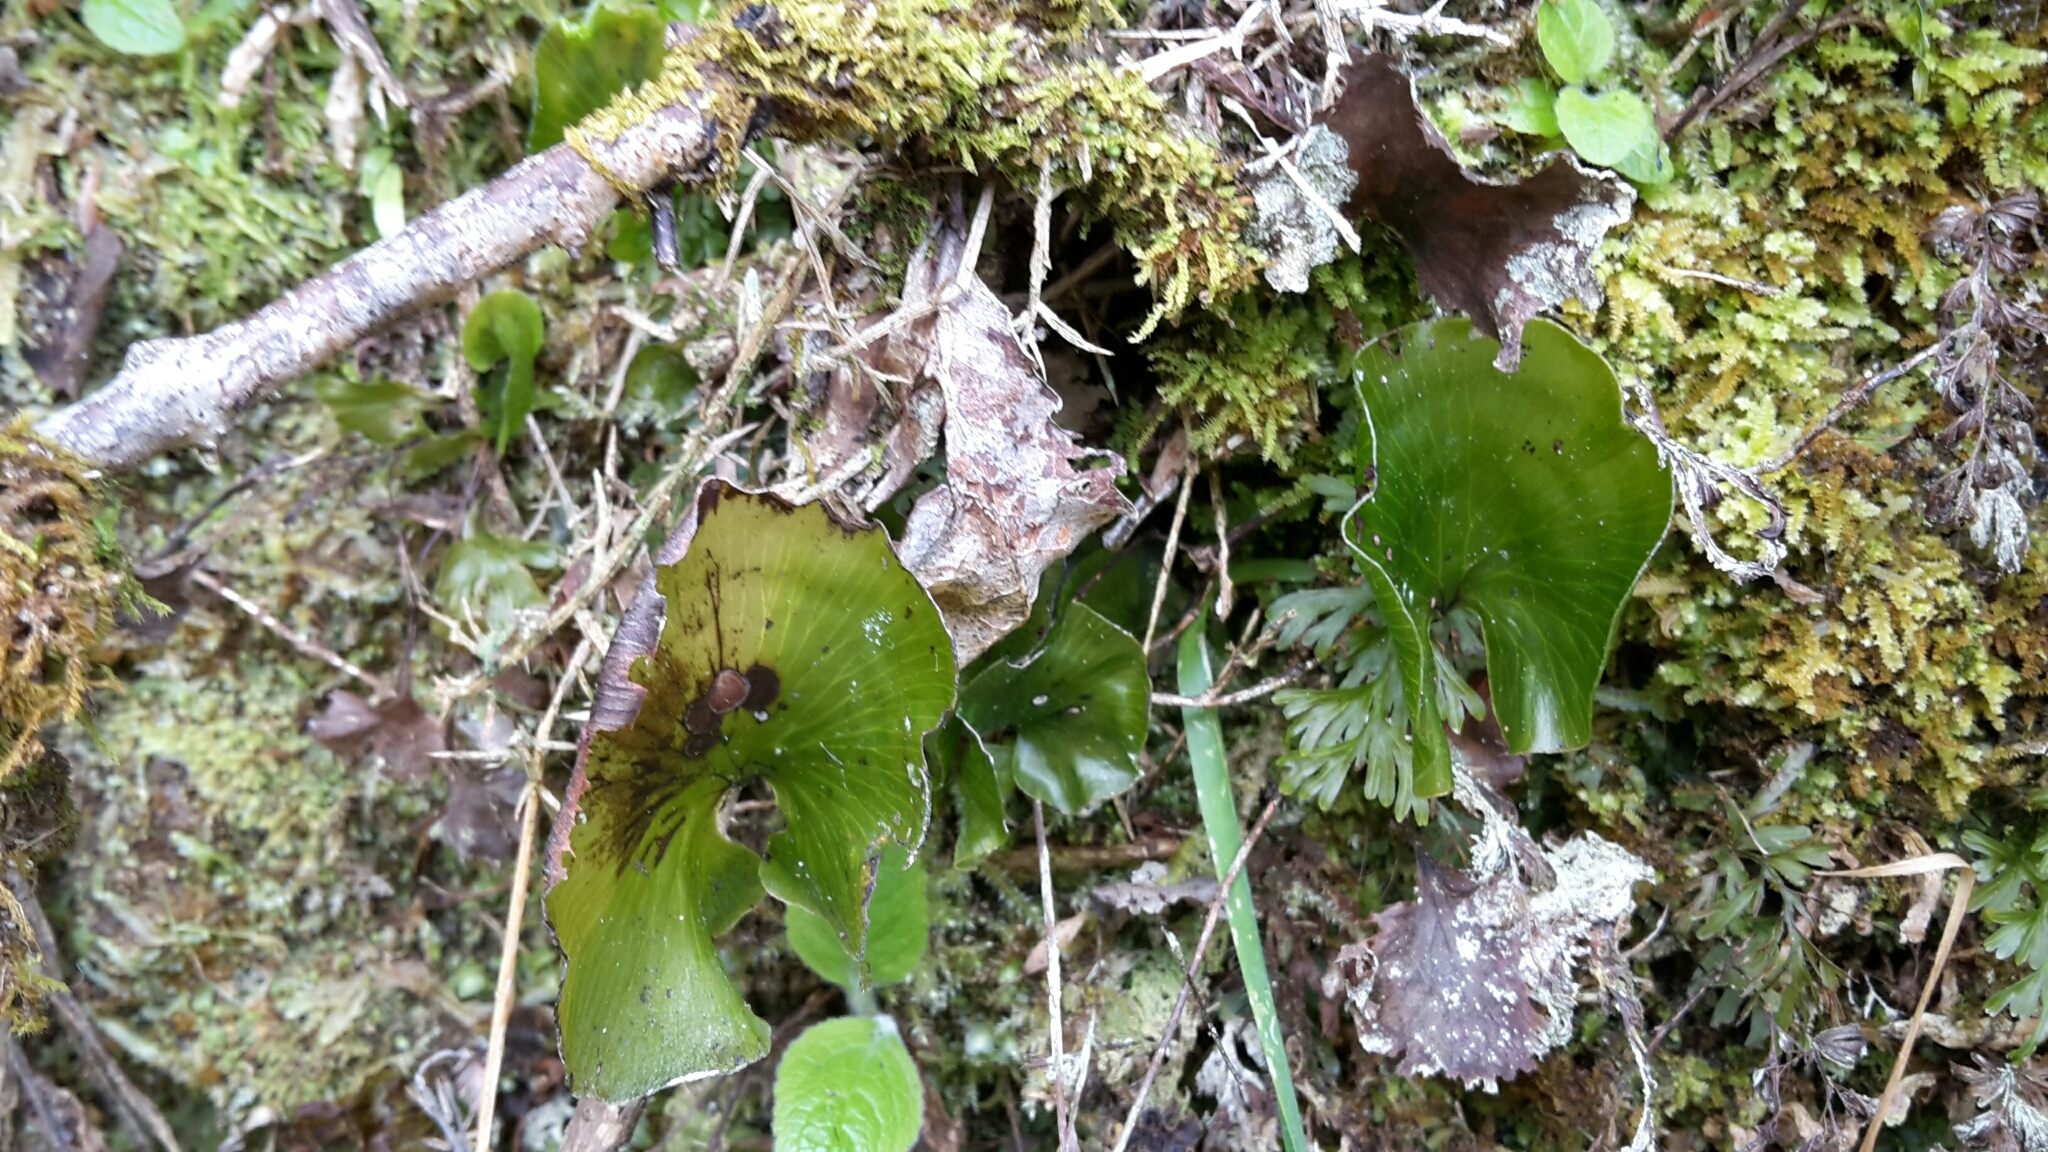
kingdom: Plantae
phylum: Tracheophyta
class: Polypodiopsida
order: Hymenophyllales
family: Hymenophyllaceae
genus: Hymenophyllum
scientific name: Hymenophyllum nephrophyllum
